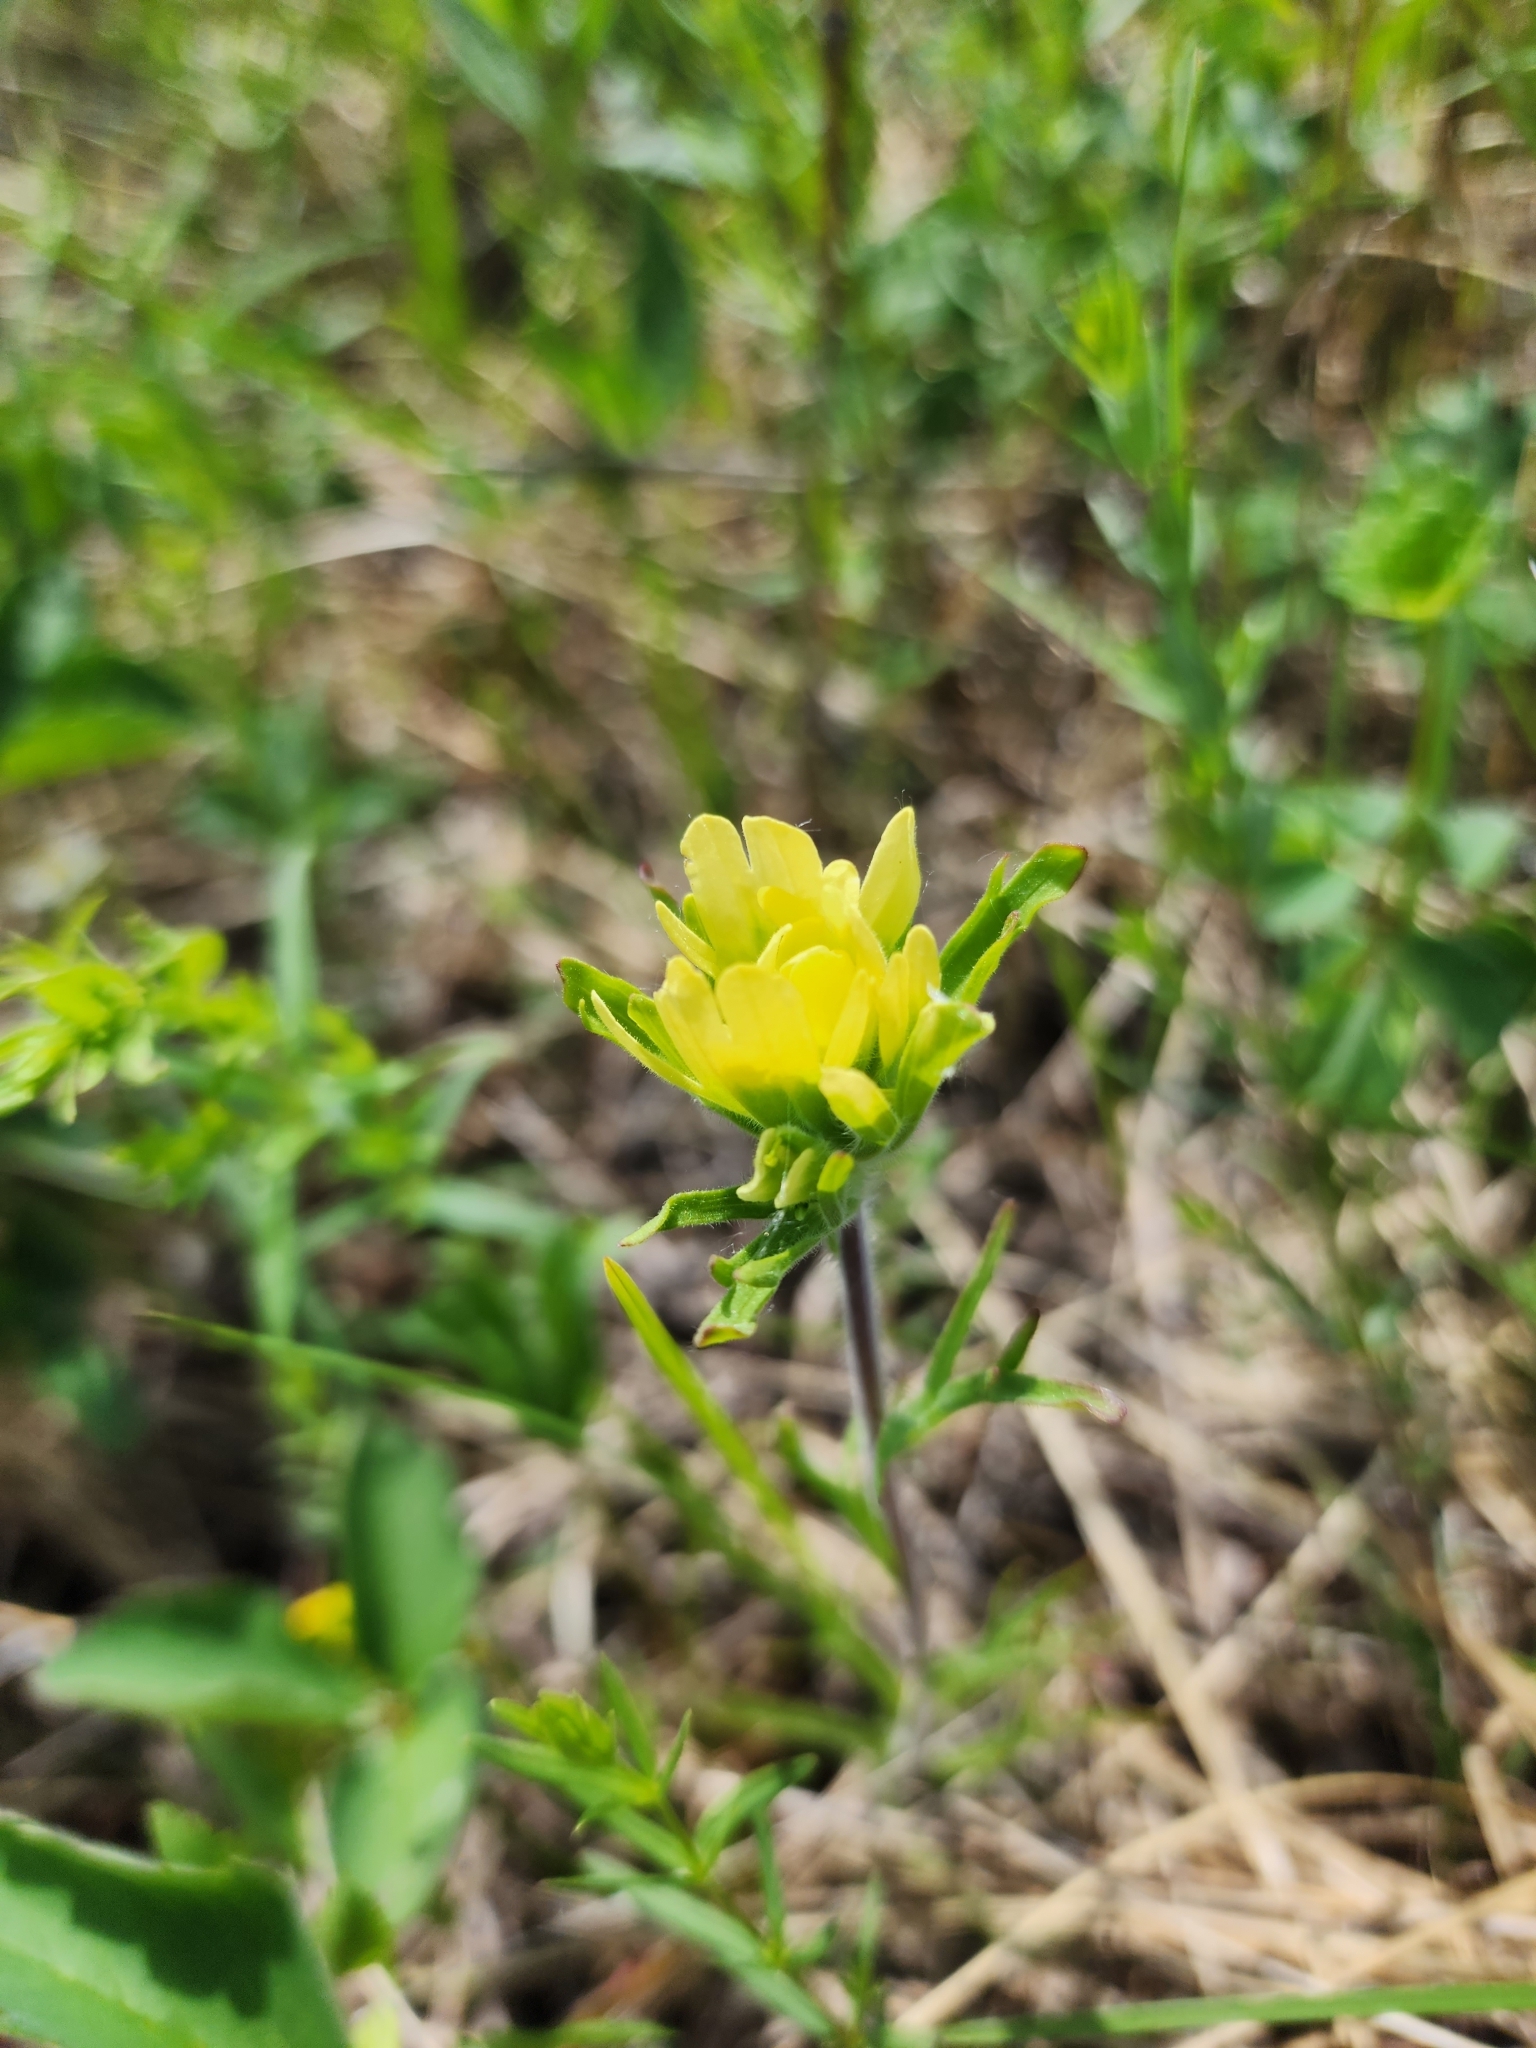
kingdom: Plantae
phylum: Tracheophyta
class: Magnoliopsida
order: Lamiales
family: Orobanchaceae
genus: Castilleja
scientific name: Castilleja coccinea
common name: Scarlet paintbrush
